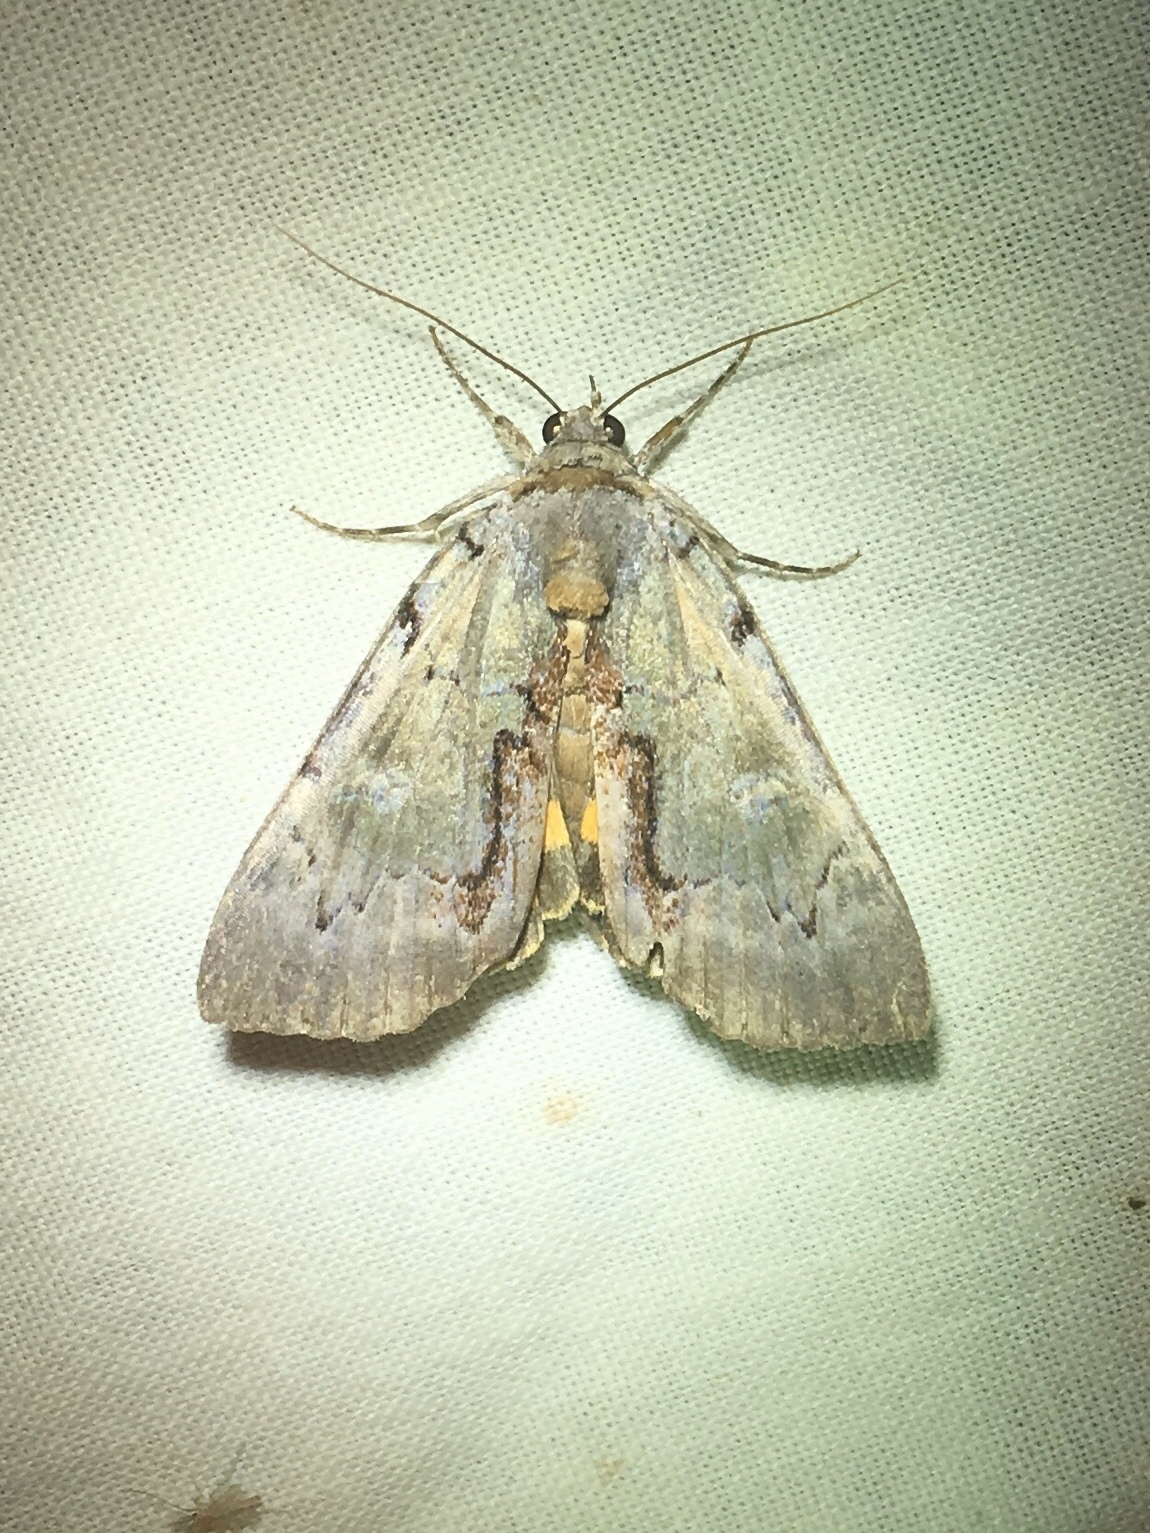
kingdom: Animalia
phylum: Arthropoda
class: Insecta
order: Lepidoptera
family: Erebidae
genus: Catocala
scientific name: Catocala grynea
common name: Woody underwing
